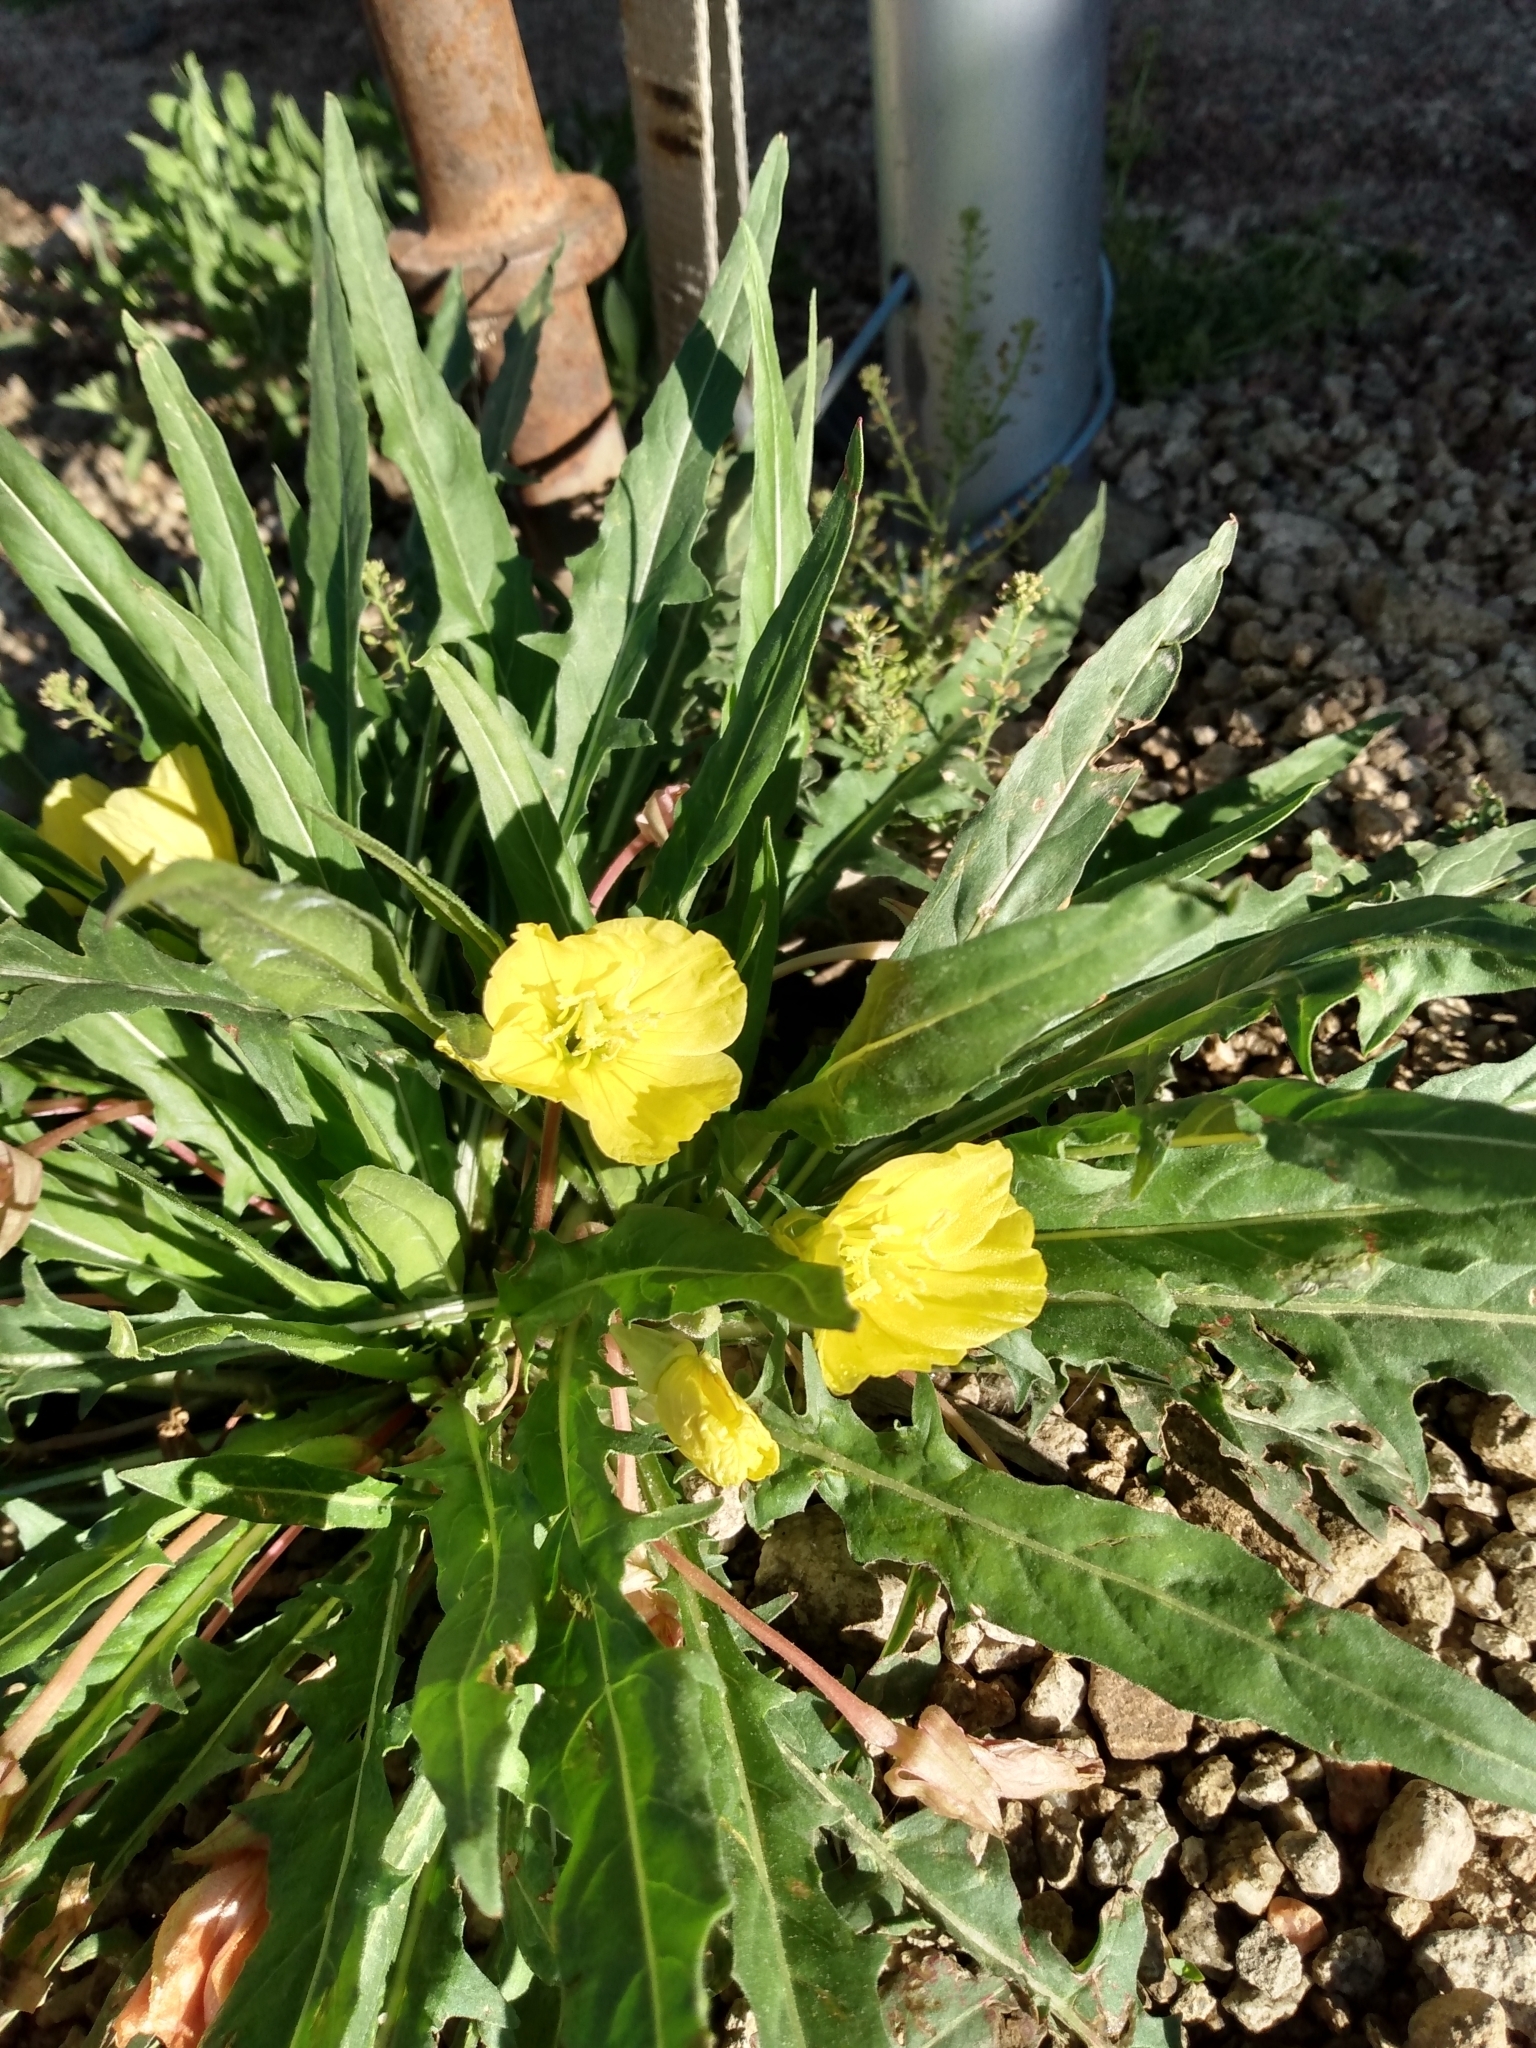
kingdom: Plantae
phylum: Tracheophyta
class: Magnoliopsida
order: Myrtales
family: Onagraceae
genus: Oenothera
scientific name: Oenothera flava
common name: Long-tubed evening-primrose
